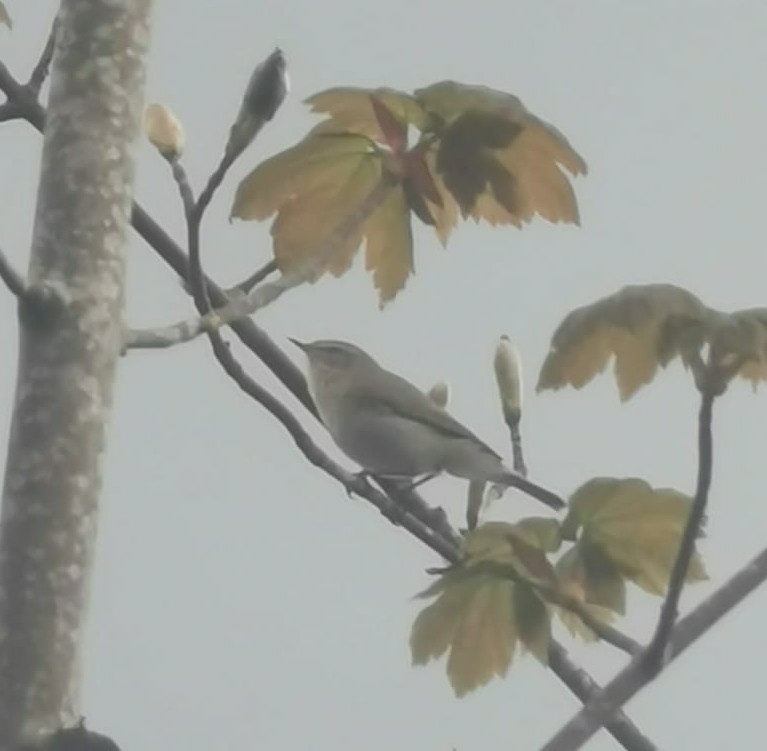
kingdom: Animalia
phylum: Chordata
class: Aves
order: Passeriformes
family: Phylloscopidae
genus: Phylloscopus
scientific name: Phylloscopus collybita
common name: Common chiffchaff
